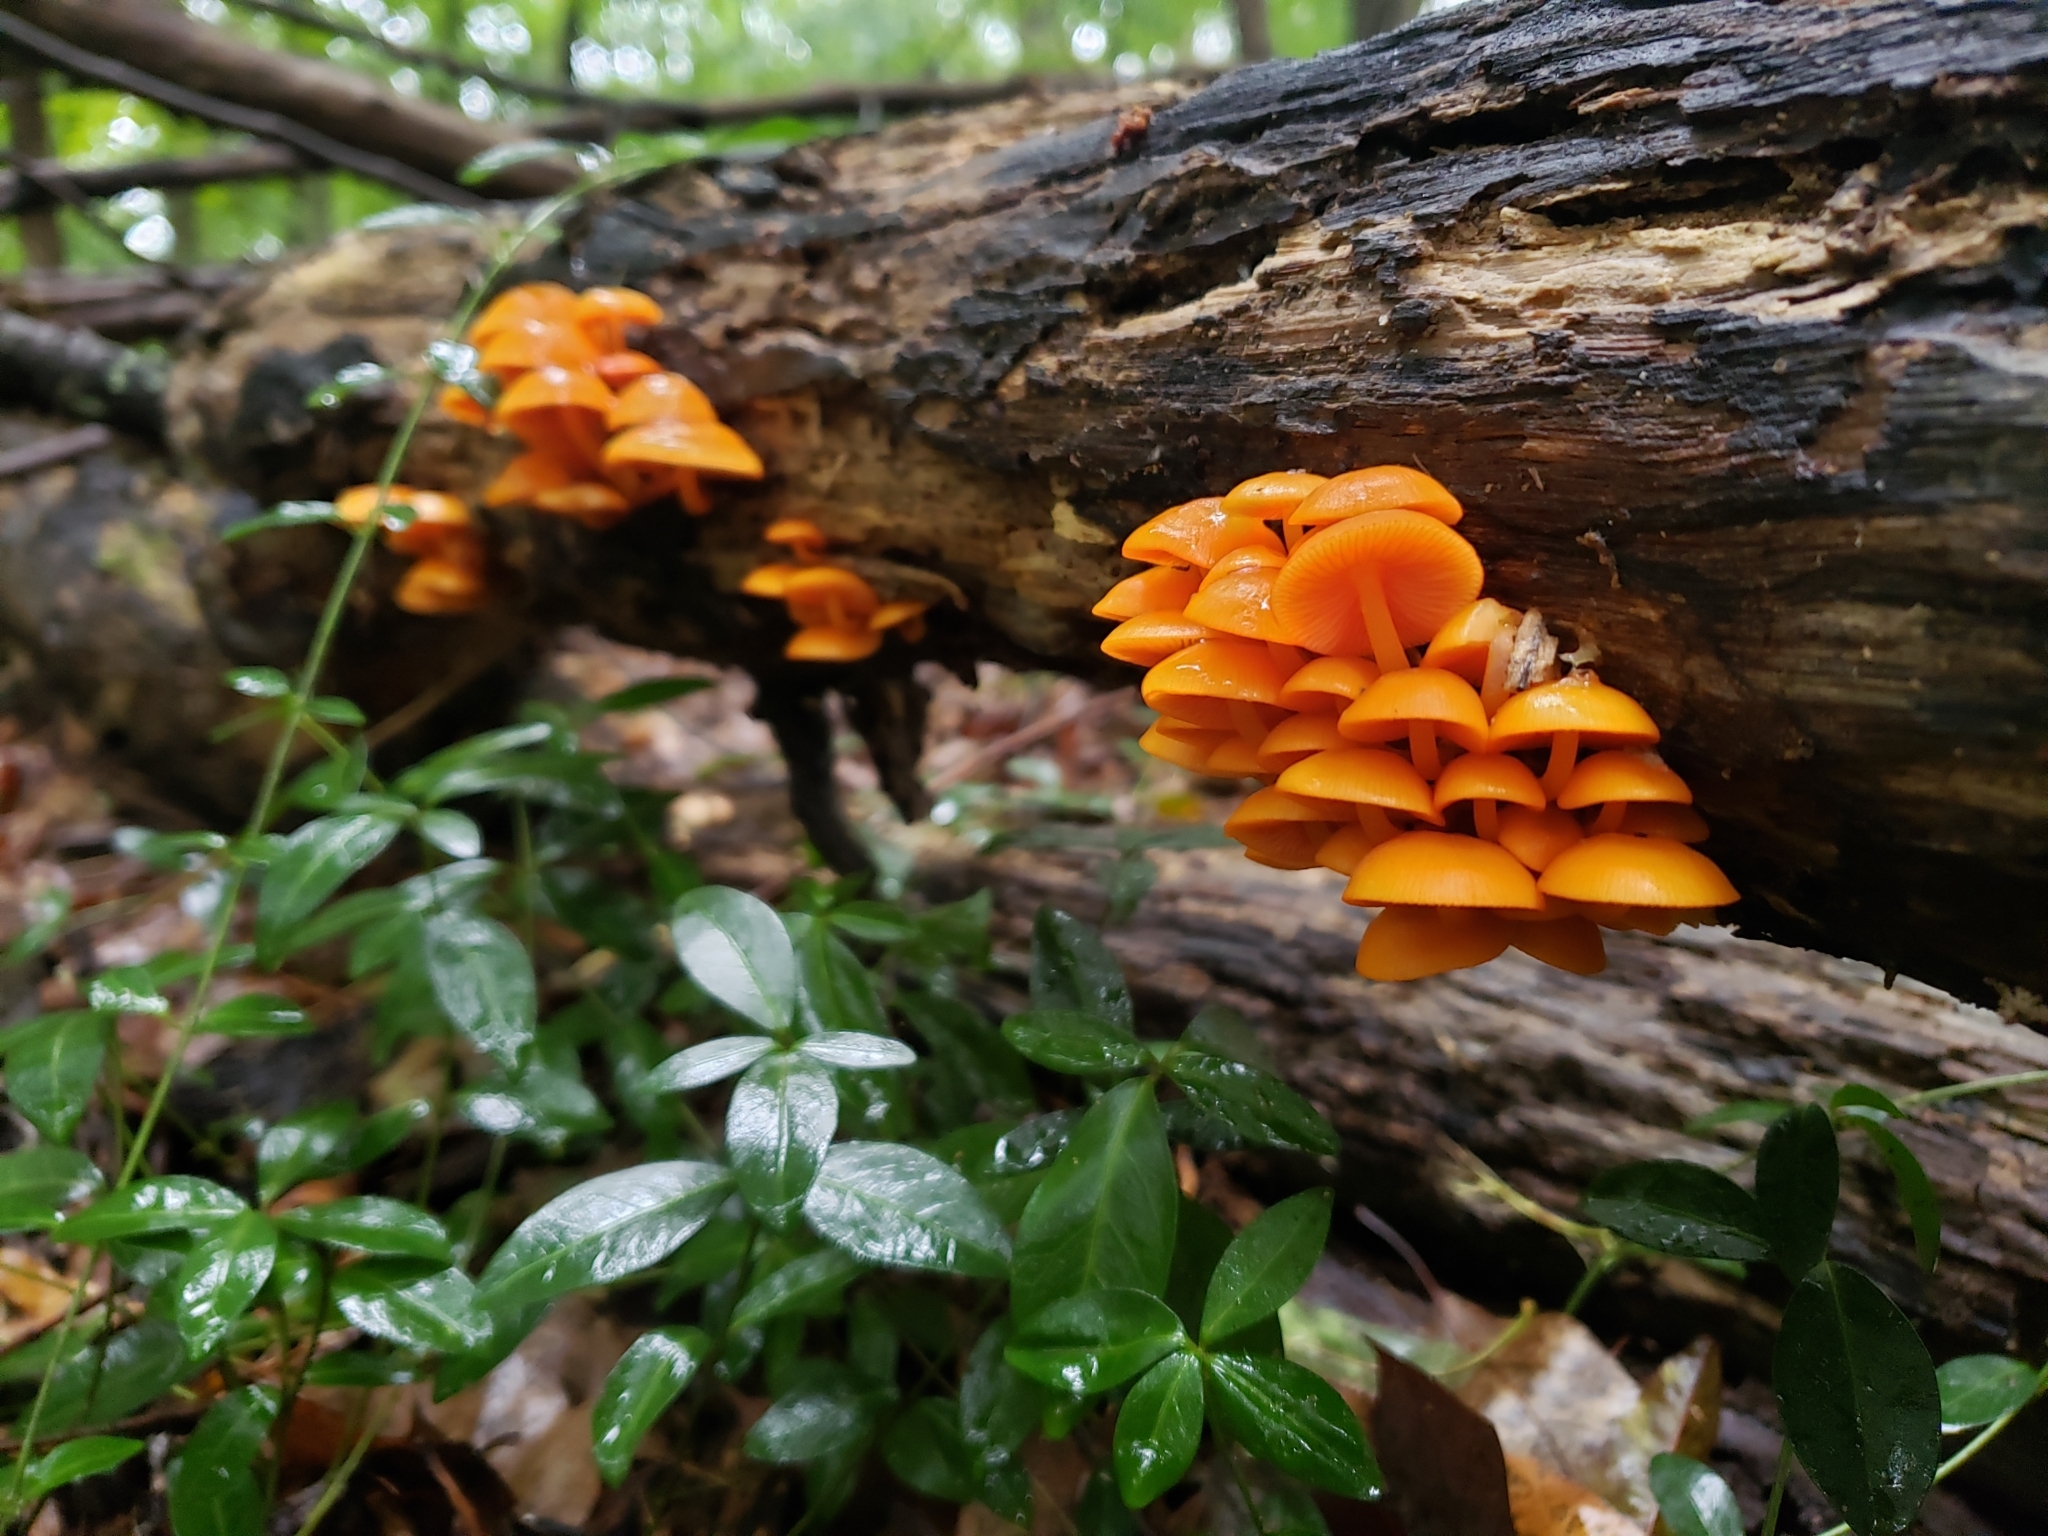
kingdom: Fungi
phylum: Basidiomycota
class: Agaricomycetes
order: Agaricales
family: Mycenaceae
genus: Mycena
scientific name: Mycena leaiana
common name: Orange mycena
